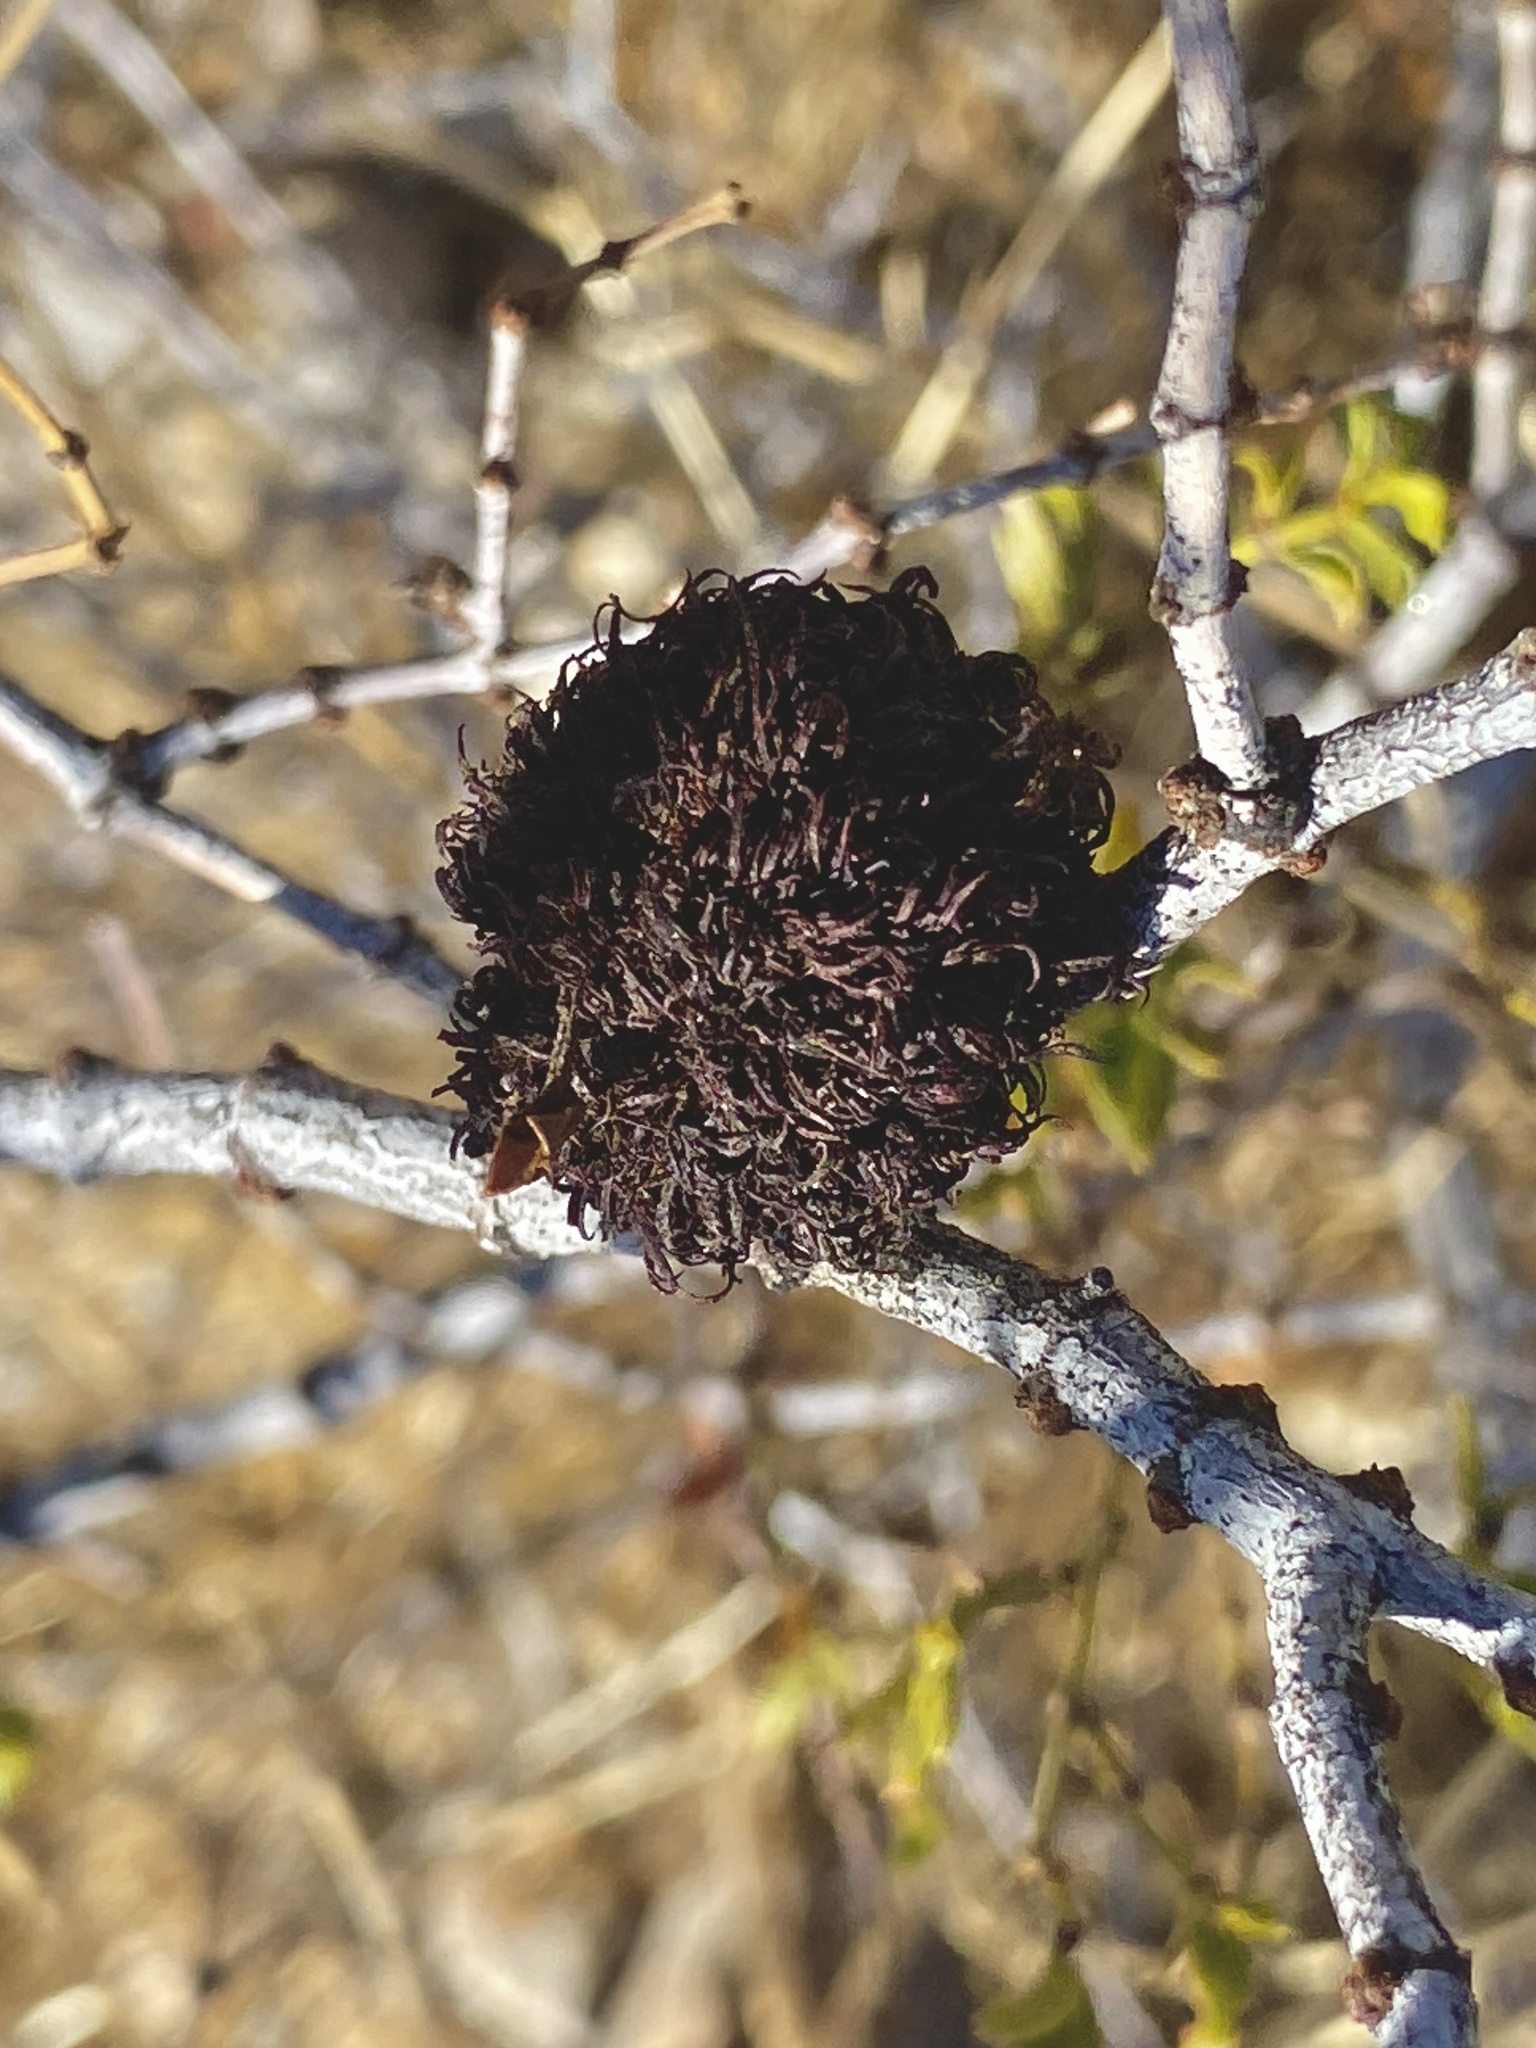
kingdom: Animalia
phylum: Arthropoda
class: Insecta
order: Diptera
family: Cecidomyiidae
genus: Asphondylia
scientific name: Asphondylia auripila
